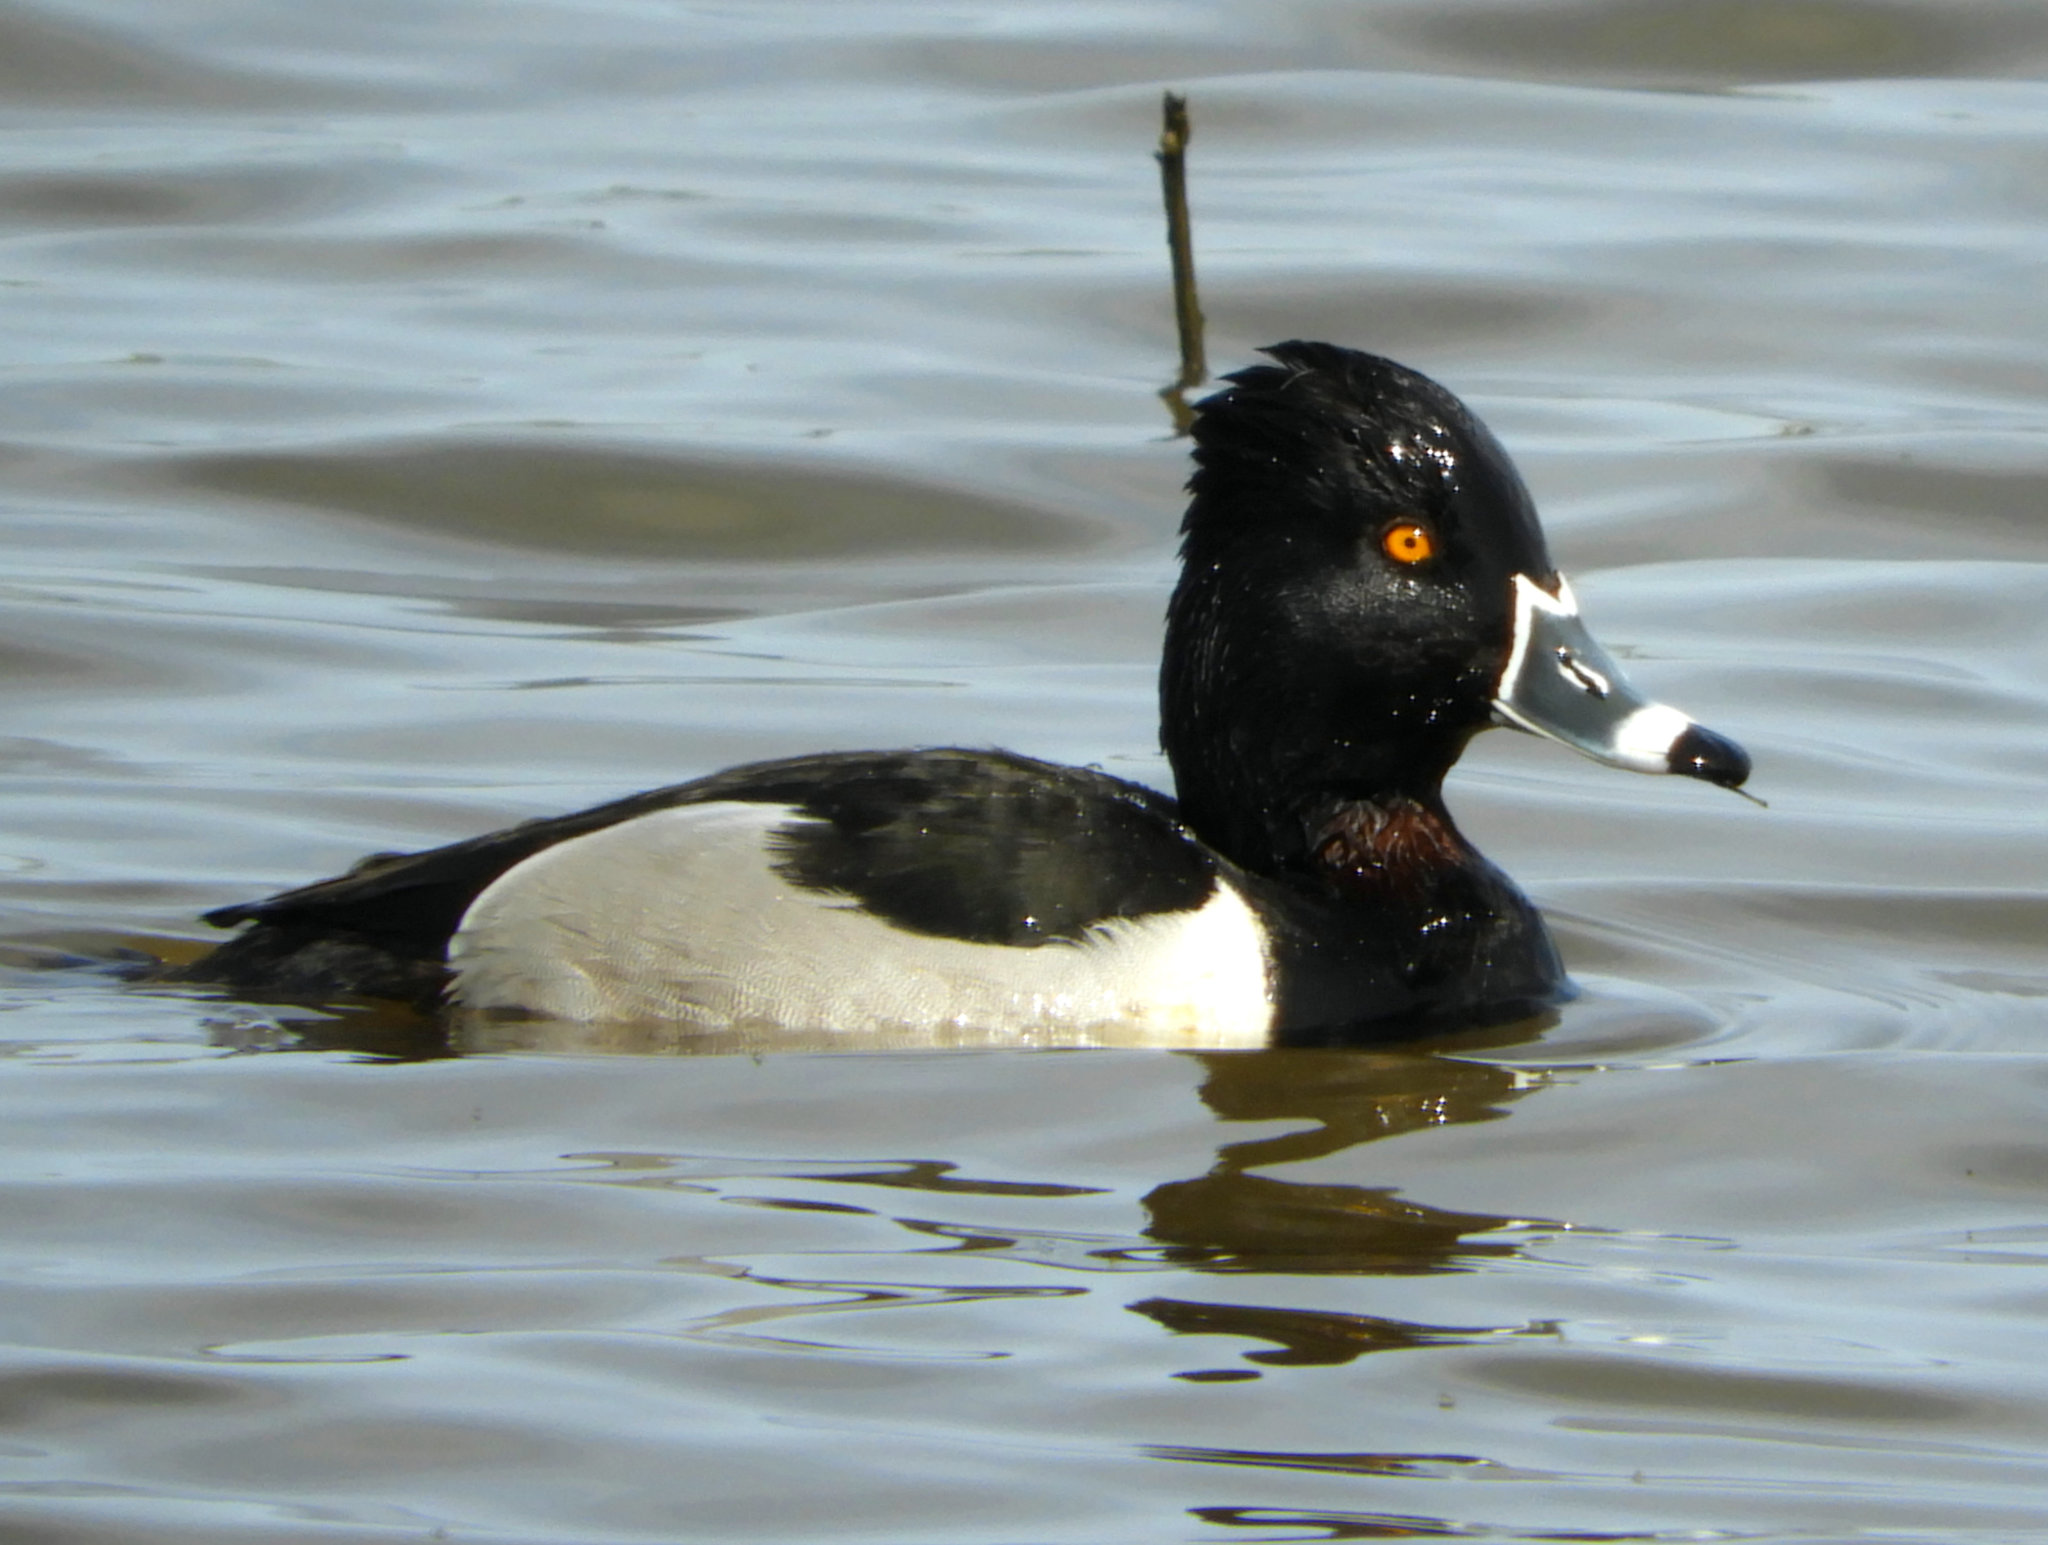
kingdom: Animalia
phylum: Chordata
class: Aves
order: Anseriformes
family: Anatidae
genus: Aythya
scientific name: Aythya collaris
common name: Ring-necked duck
